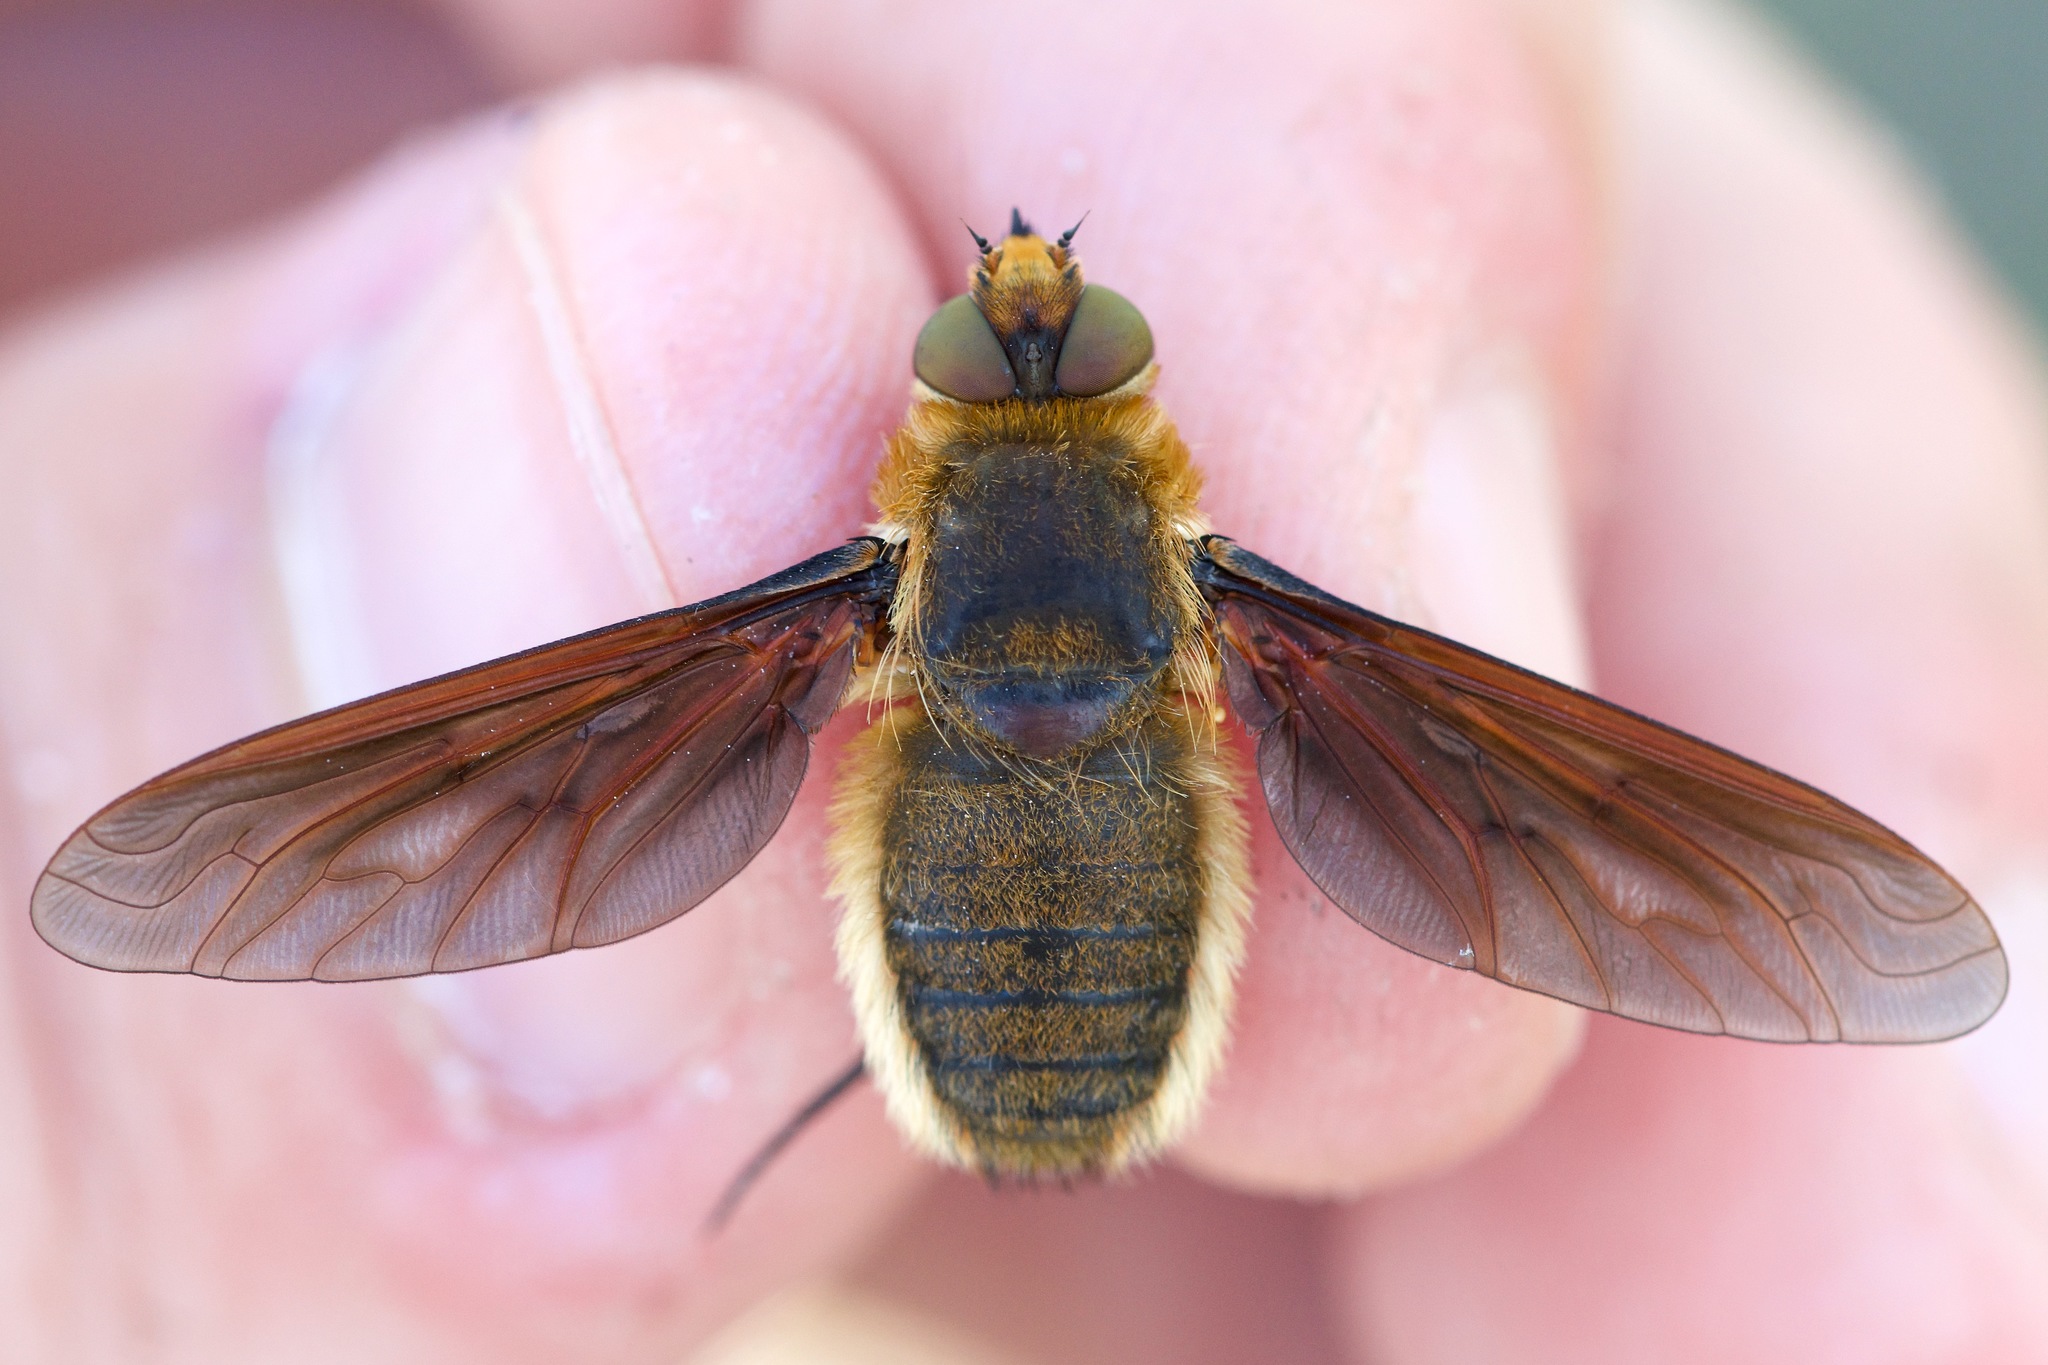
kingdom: Animalia
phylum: Arthropoda
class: Insecta
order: Diptera
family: Bombyliidae
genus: Poecilanthrax
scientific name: Poecilanthrax tegminipennis
